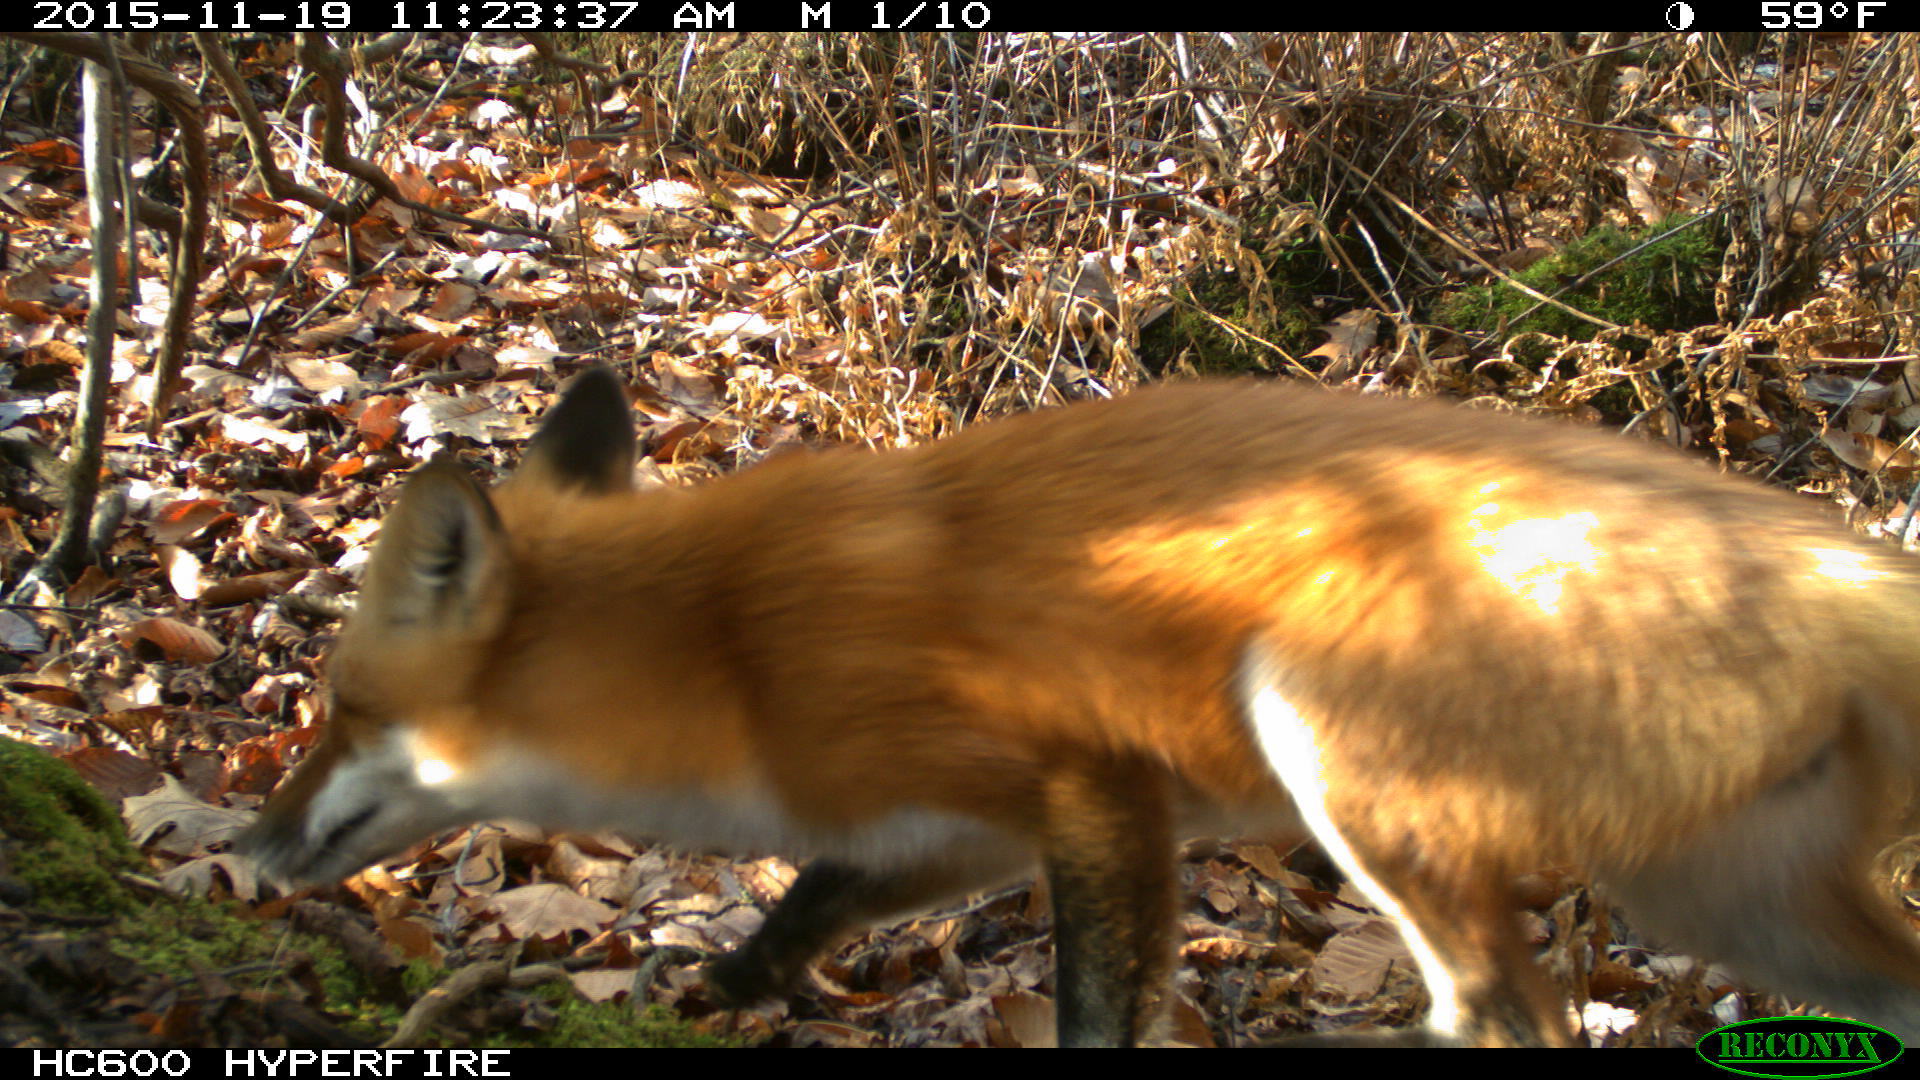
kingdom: Animalia
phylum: Chordata
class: Mammalia
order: Carnivora
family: Canidae
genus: Vulpes
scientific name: Vulpes vulpes
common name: Red fox
